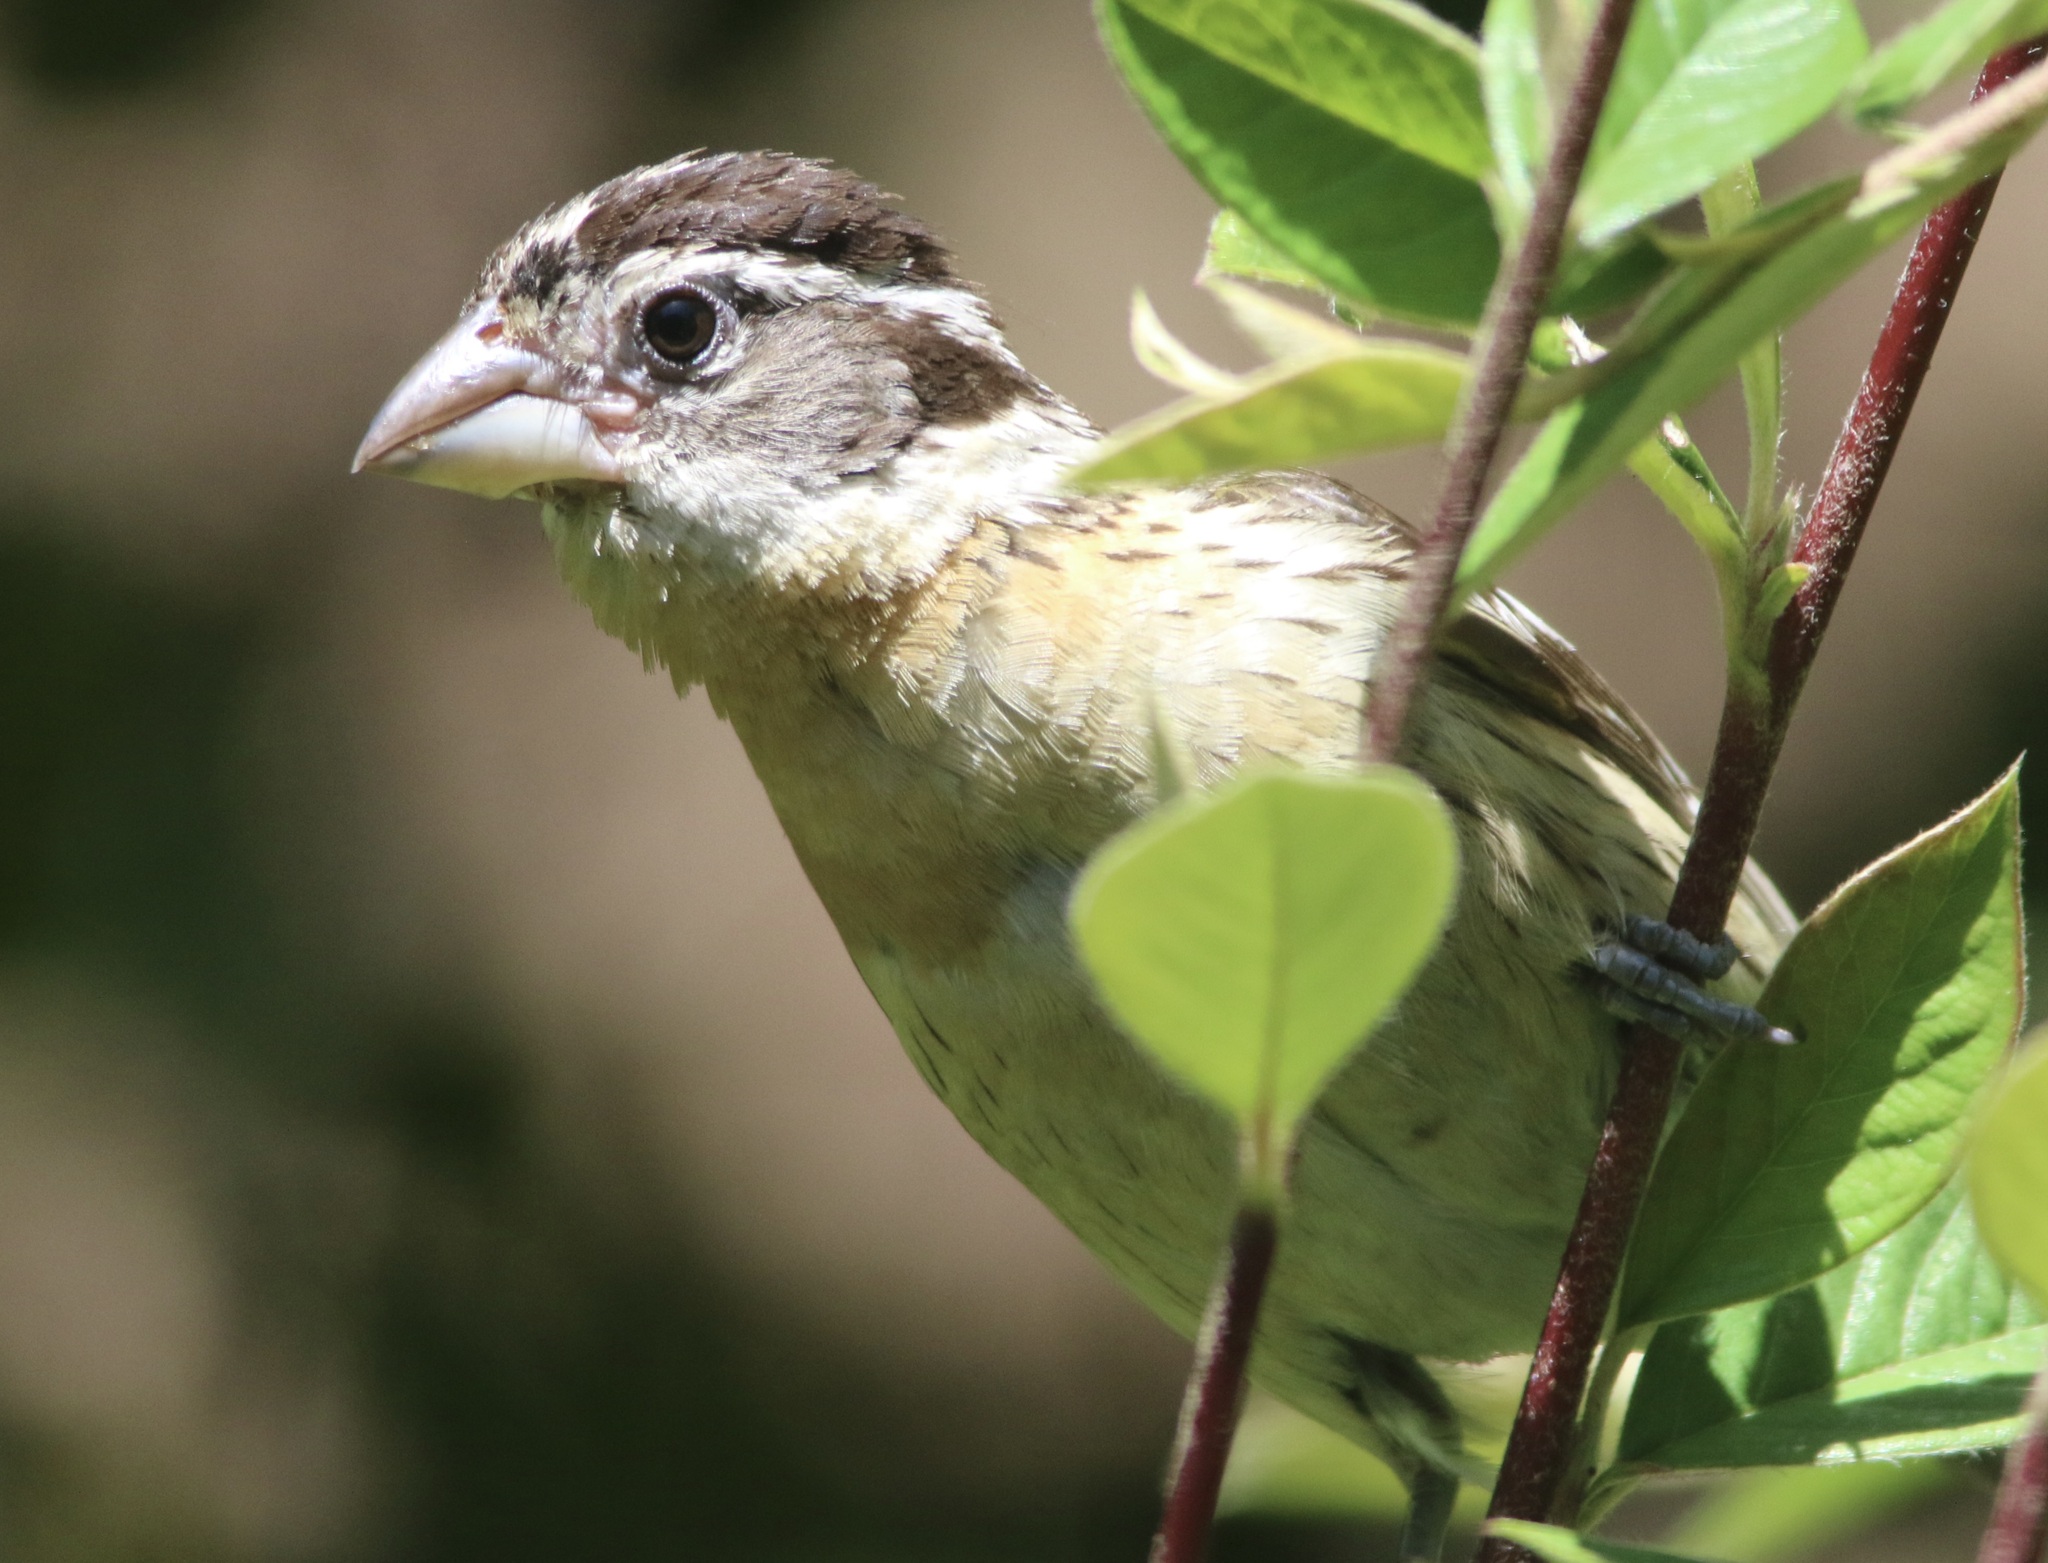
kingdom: Animalia
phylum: Chordata
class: Aves
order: Passeriformes
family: Cardinalidae
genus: Pheucticus
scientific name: Pheucticus melanocephalus
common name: Black-headed grosbeak
